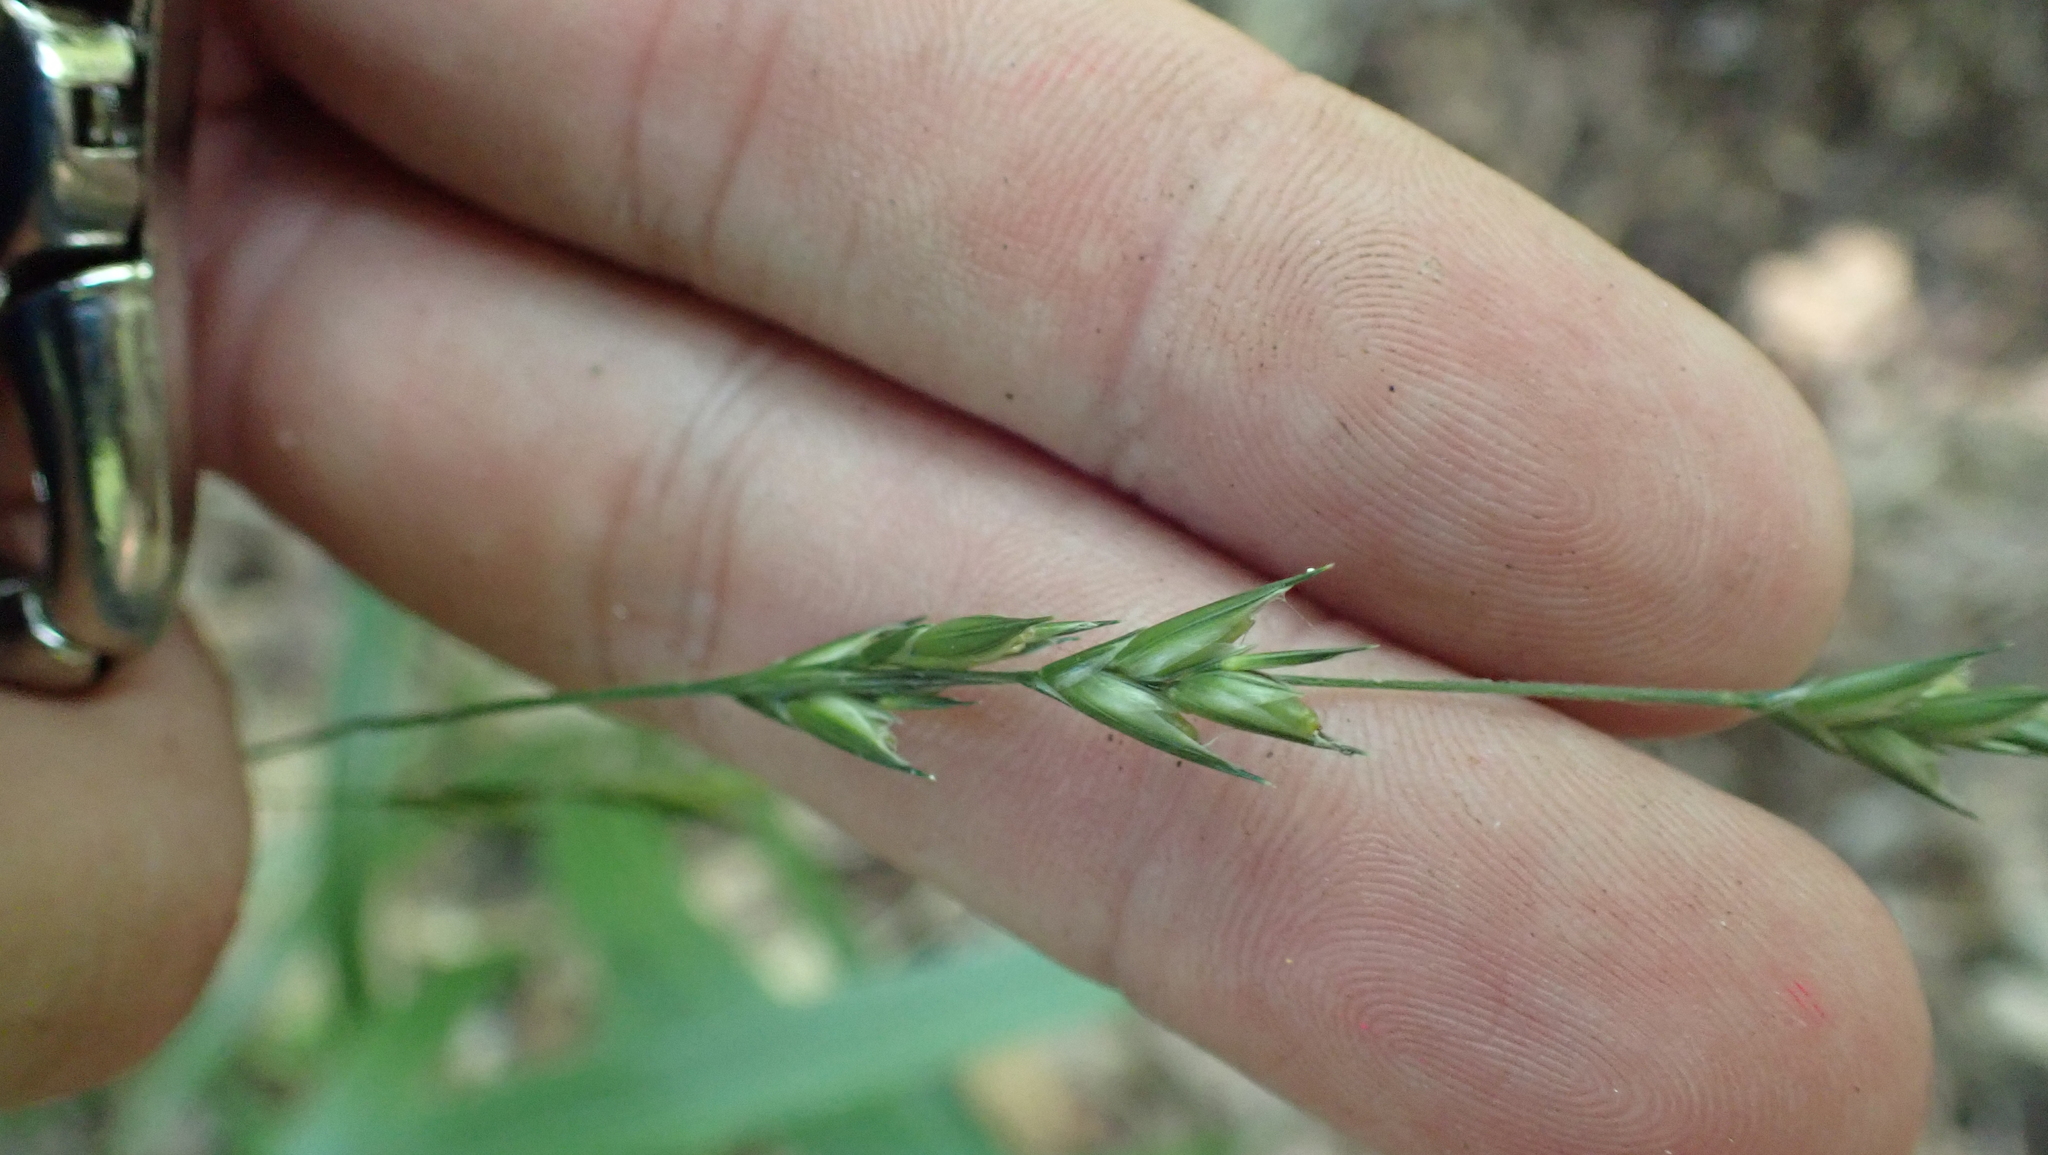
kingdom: Plantae
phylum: Tracheophyta
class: Liliopsida
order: Poales
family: Poaceae
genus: Diarrhena
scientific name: Diarrhena americana
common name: American beakgrain
